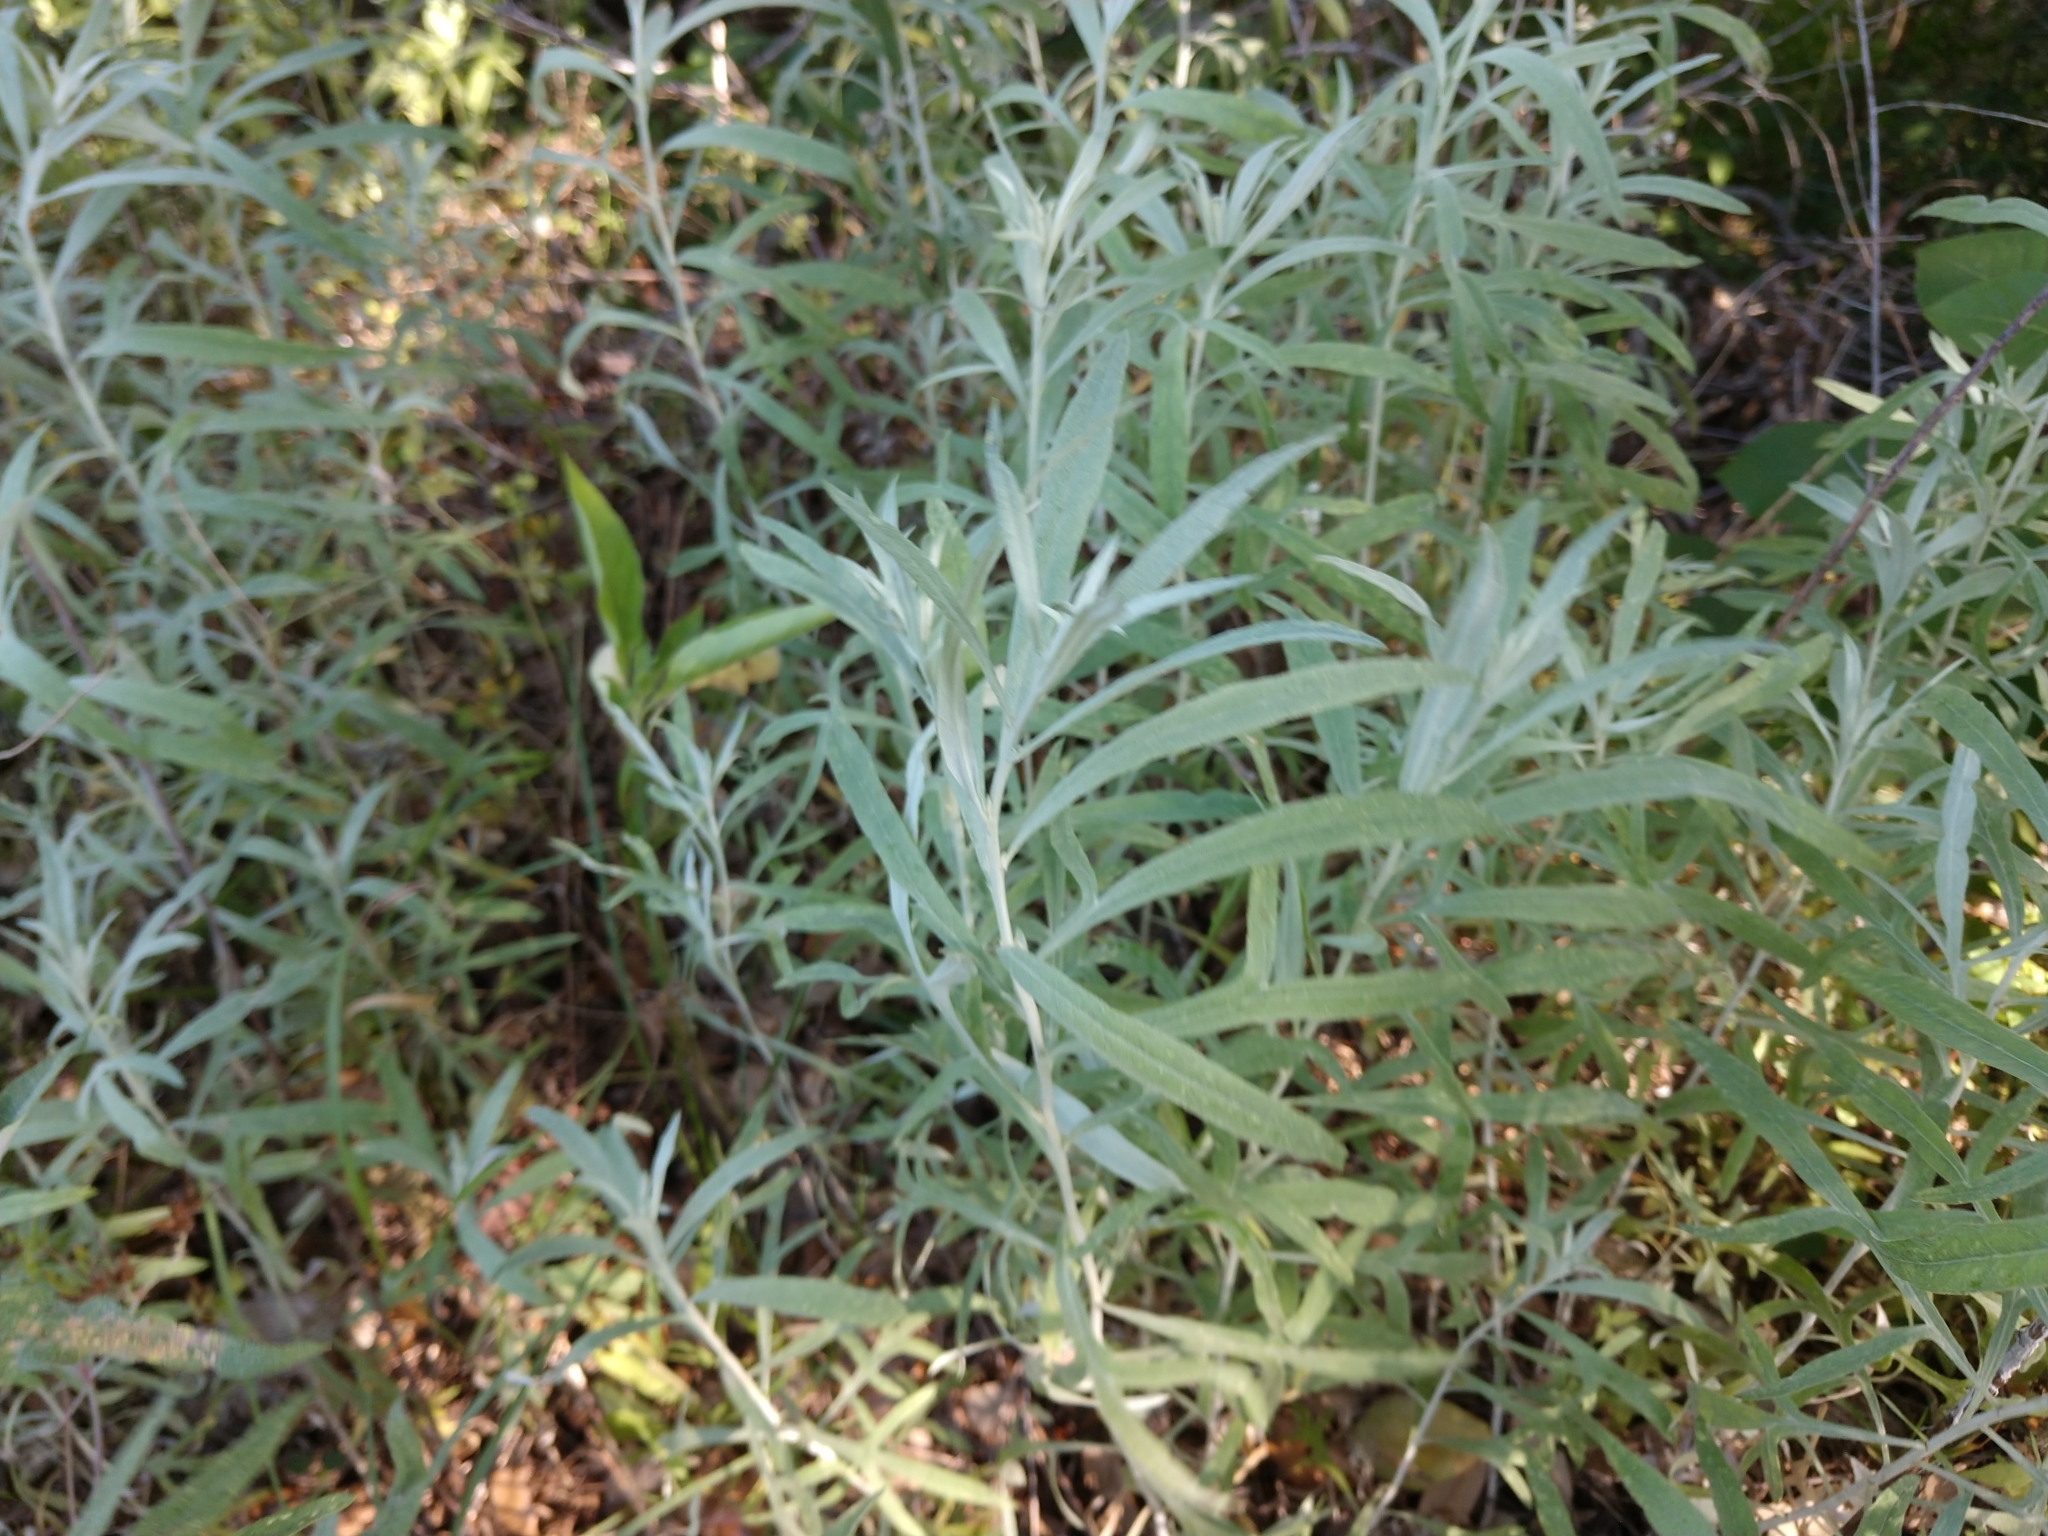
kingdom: Plantae
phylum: Tracheophyta
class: Magnoliopsida
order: Asterales
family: Asteraceae
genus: Artemisia
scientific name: Artemisia ludoviciana
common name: Western mugwort
